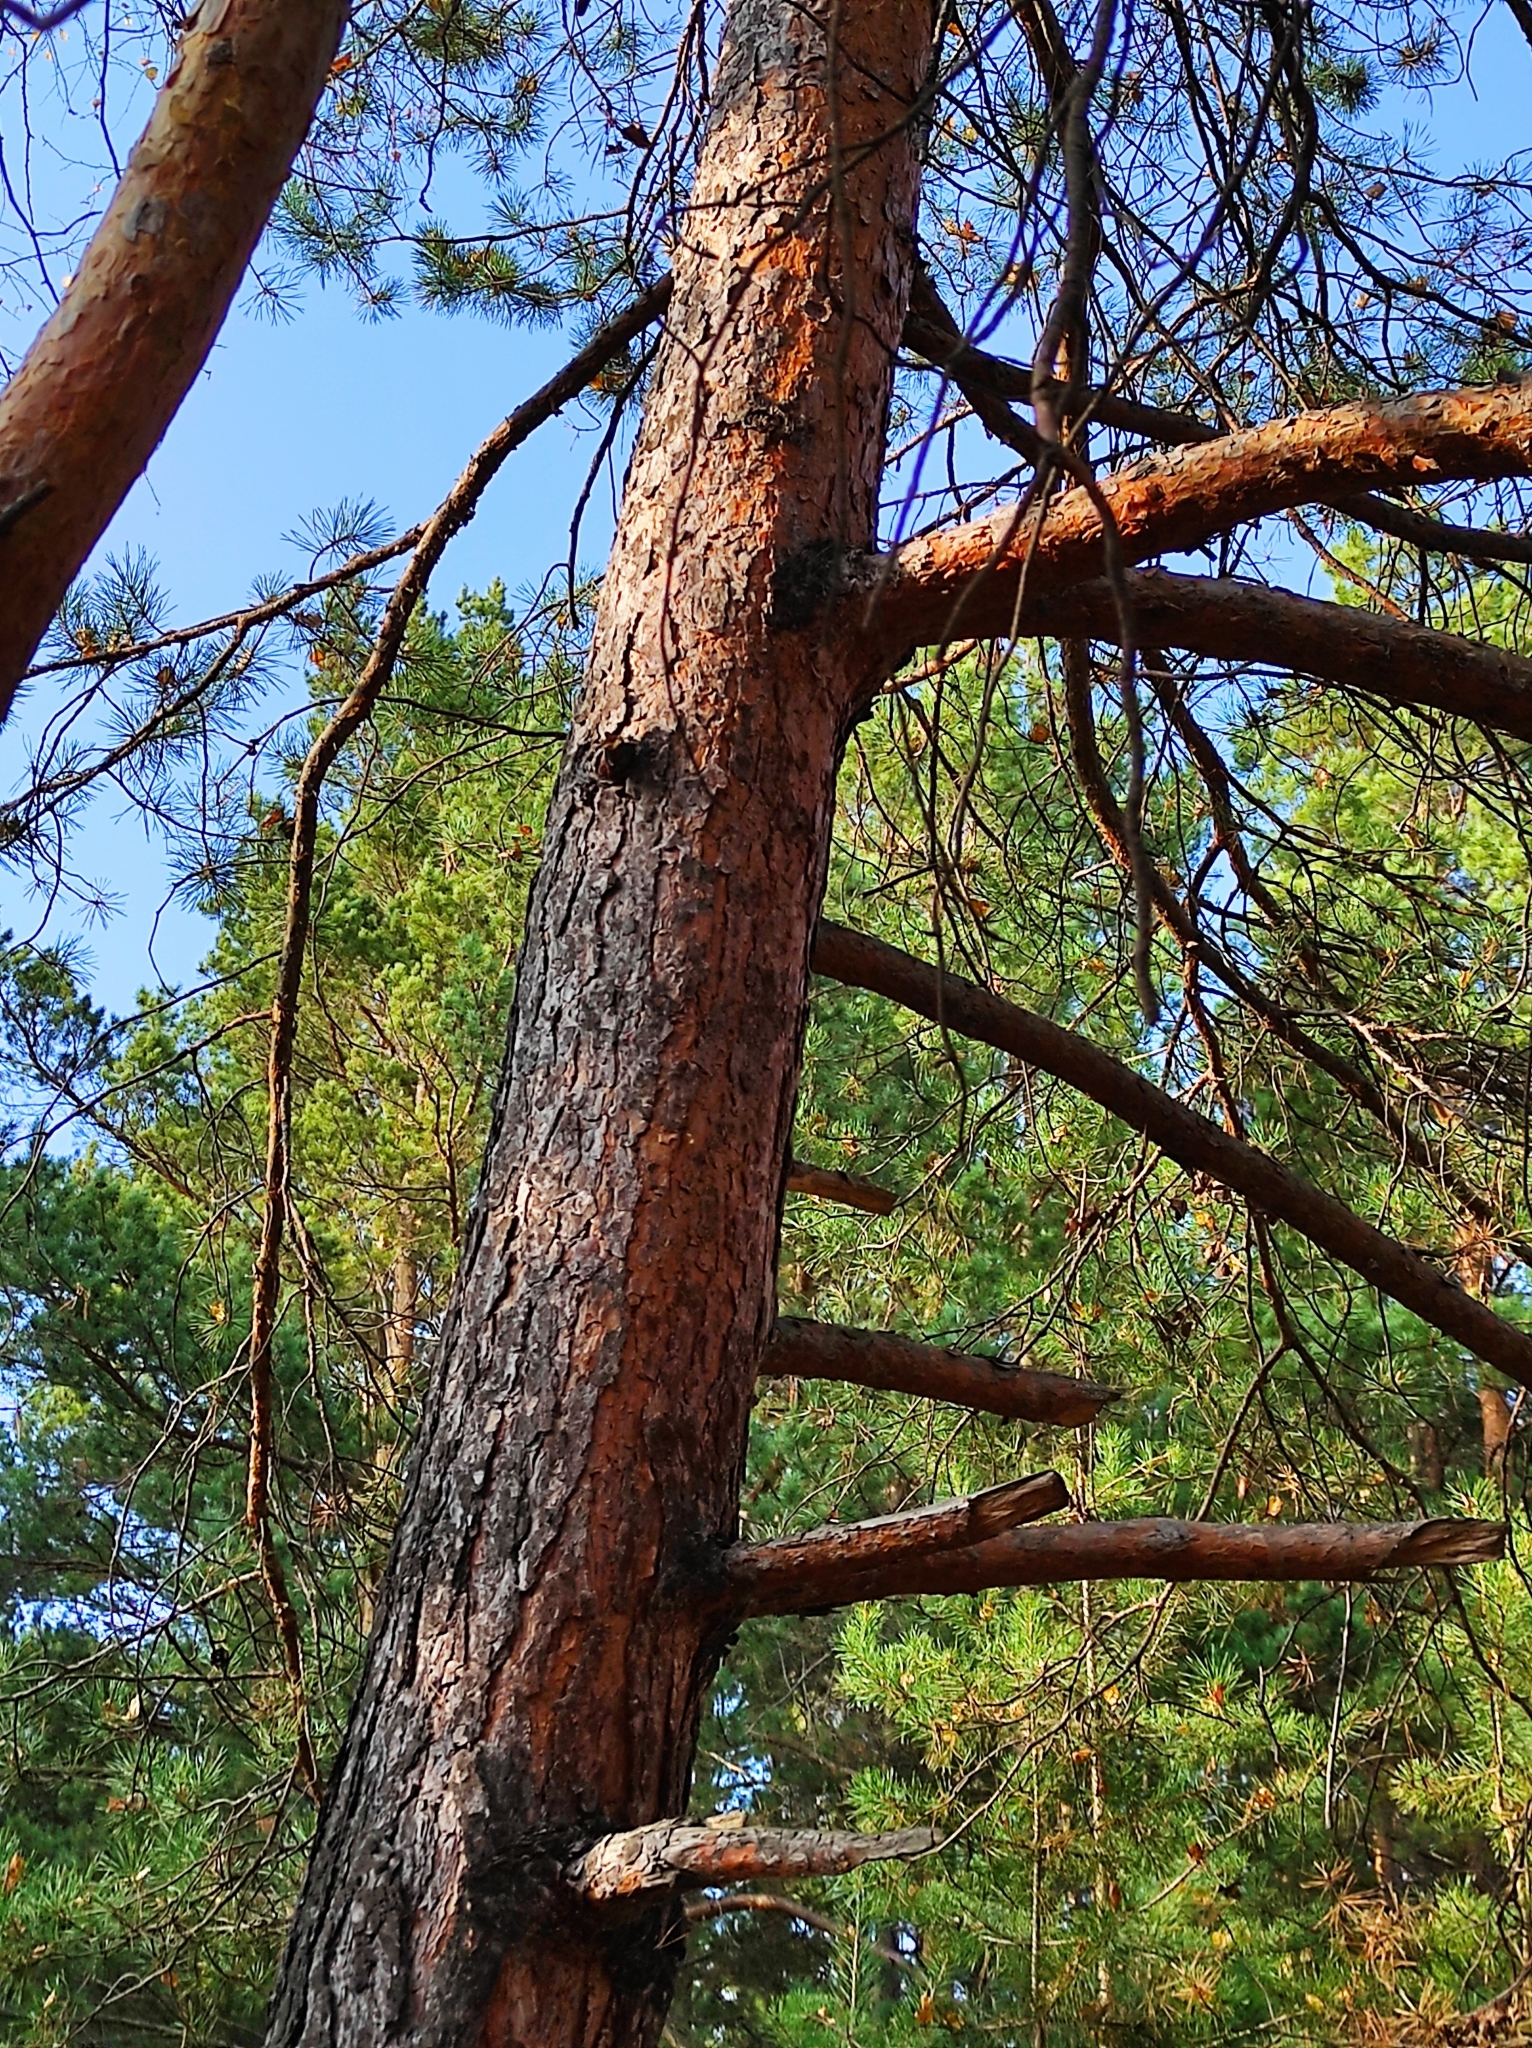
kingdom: Plantae
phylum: Tracheophyta
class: Pinopsida
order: Pinales
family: Pinaceae
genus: Pinus
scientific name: Pinus sylvestris
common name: Scots pine
